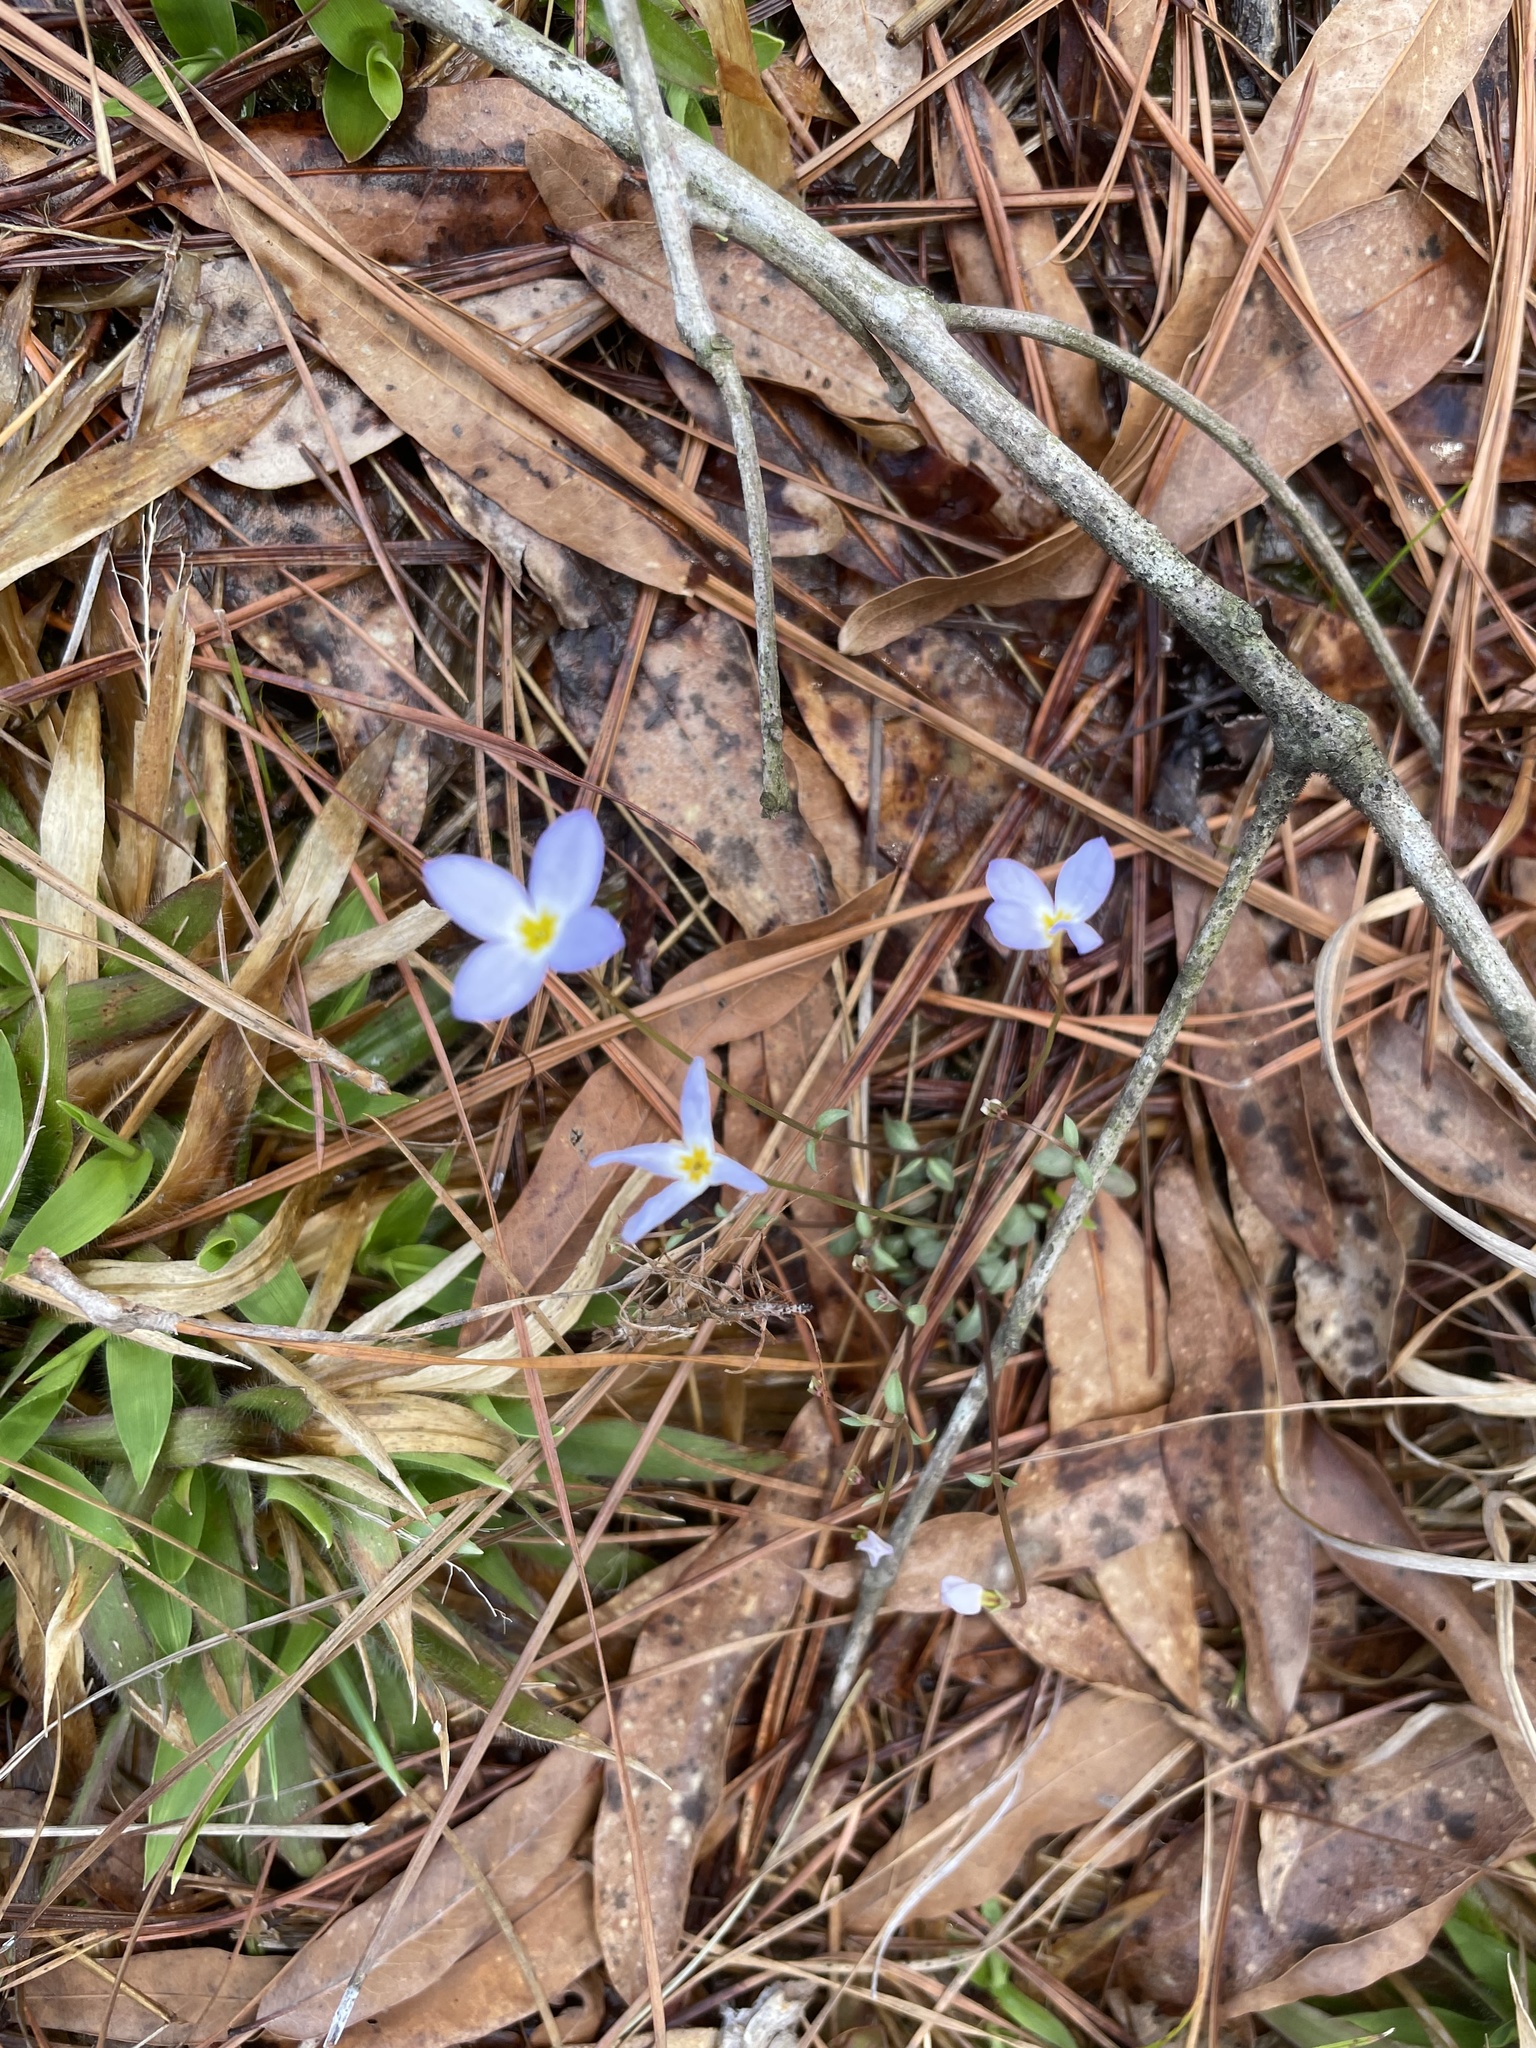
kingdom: Plantae
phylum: Tracheophyta
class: Magnoliopsida
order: Gentianales
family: Rubiaceae
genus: Houstonia
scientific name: Houstonia caerulea
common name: Bluets
